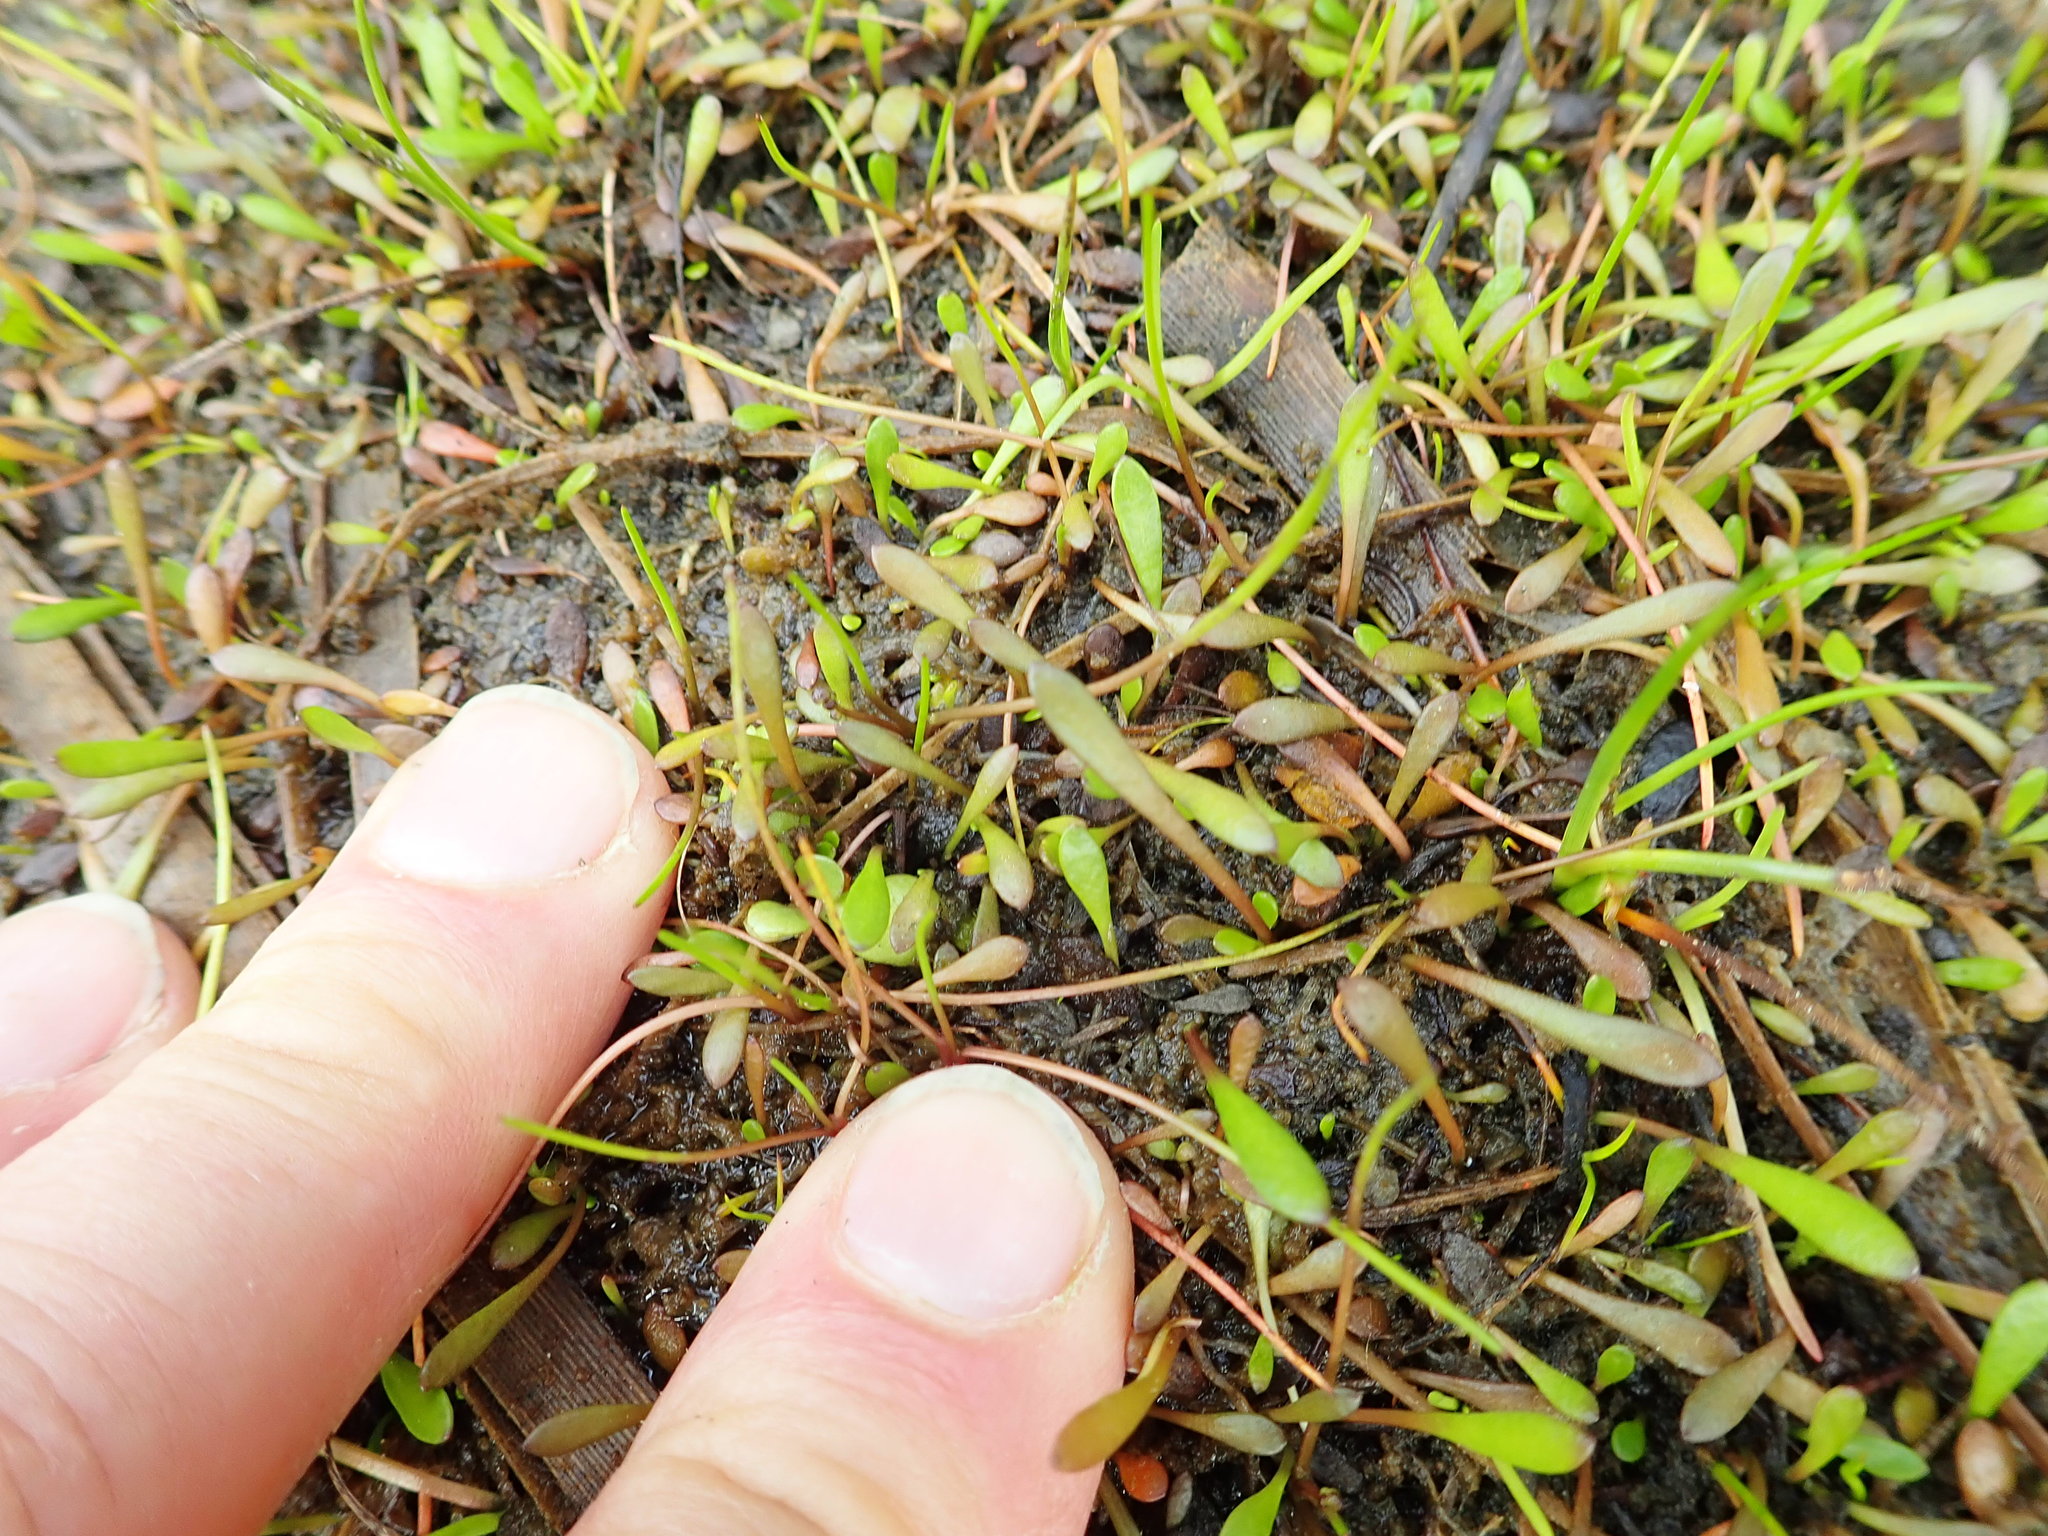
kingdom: Plantae
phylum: Tracheophyta
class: Magnoliopsida
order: Asterales
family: Goodeniaceae
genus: Goodenia
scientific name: Goodenia radicans
